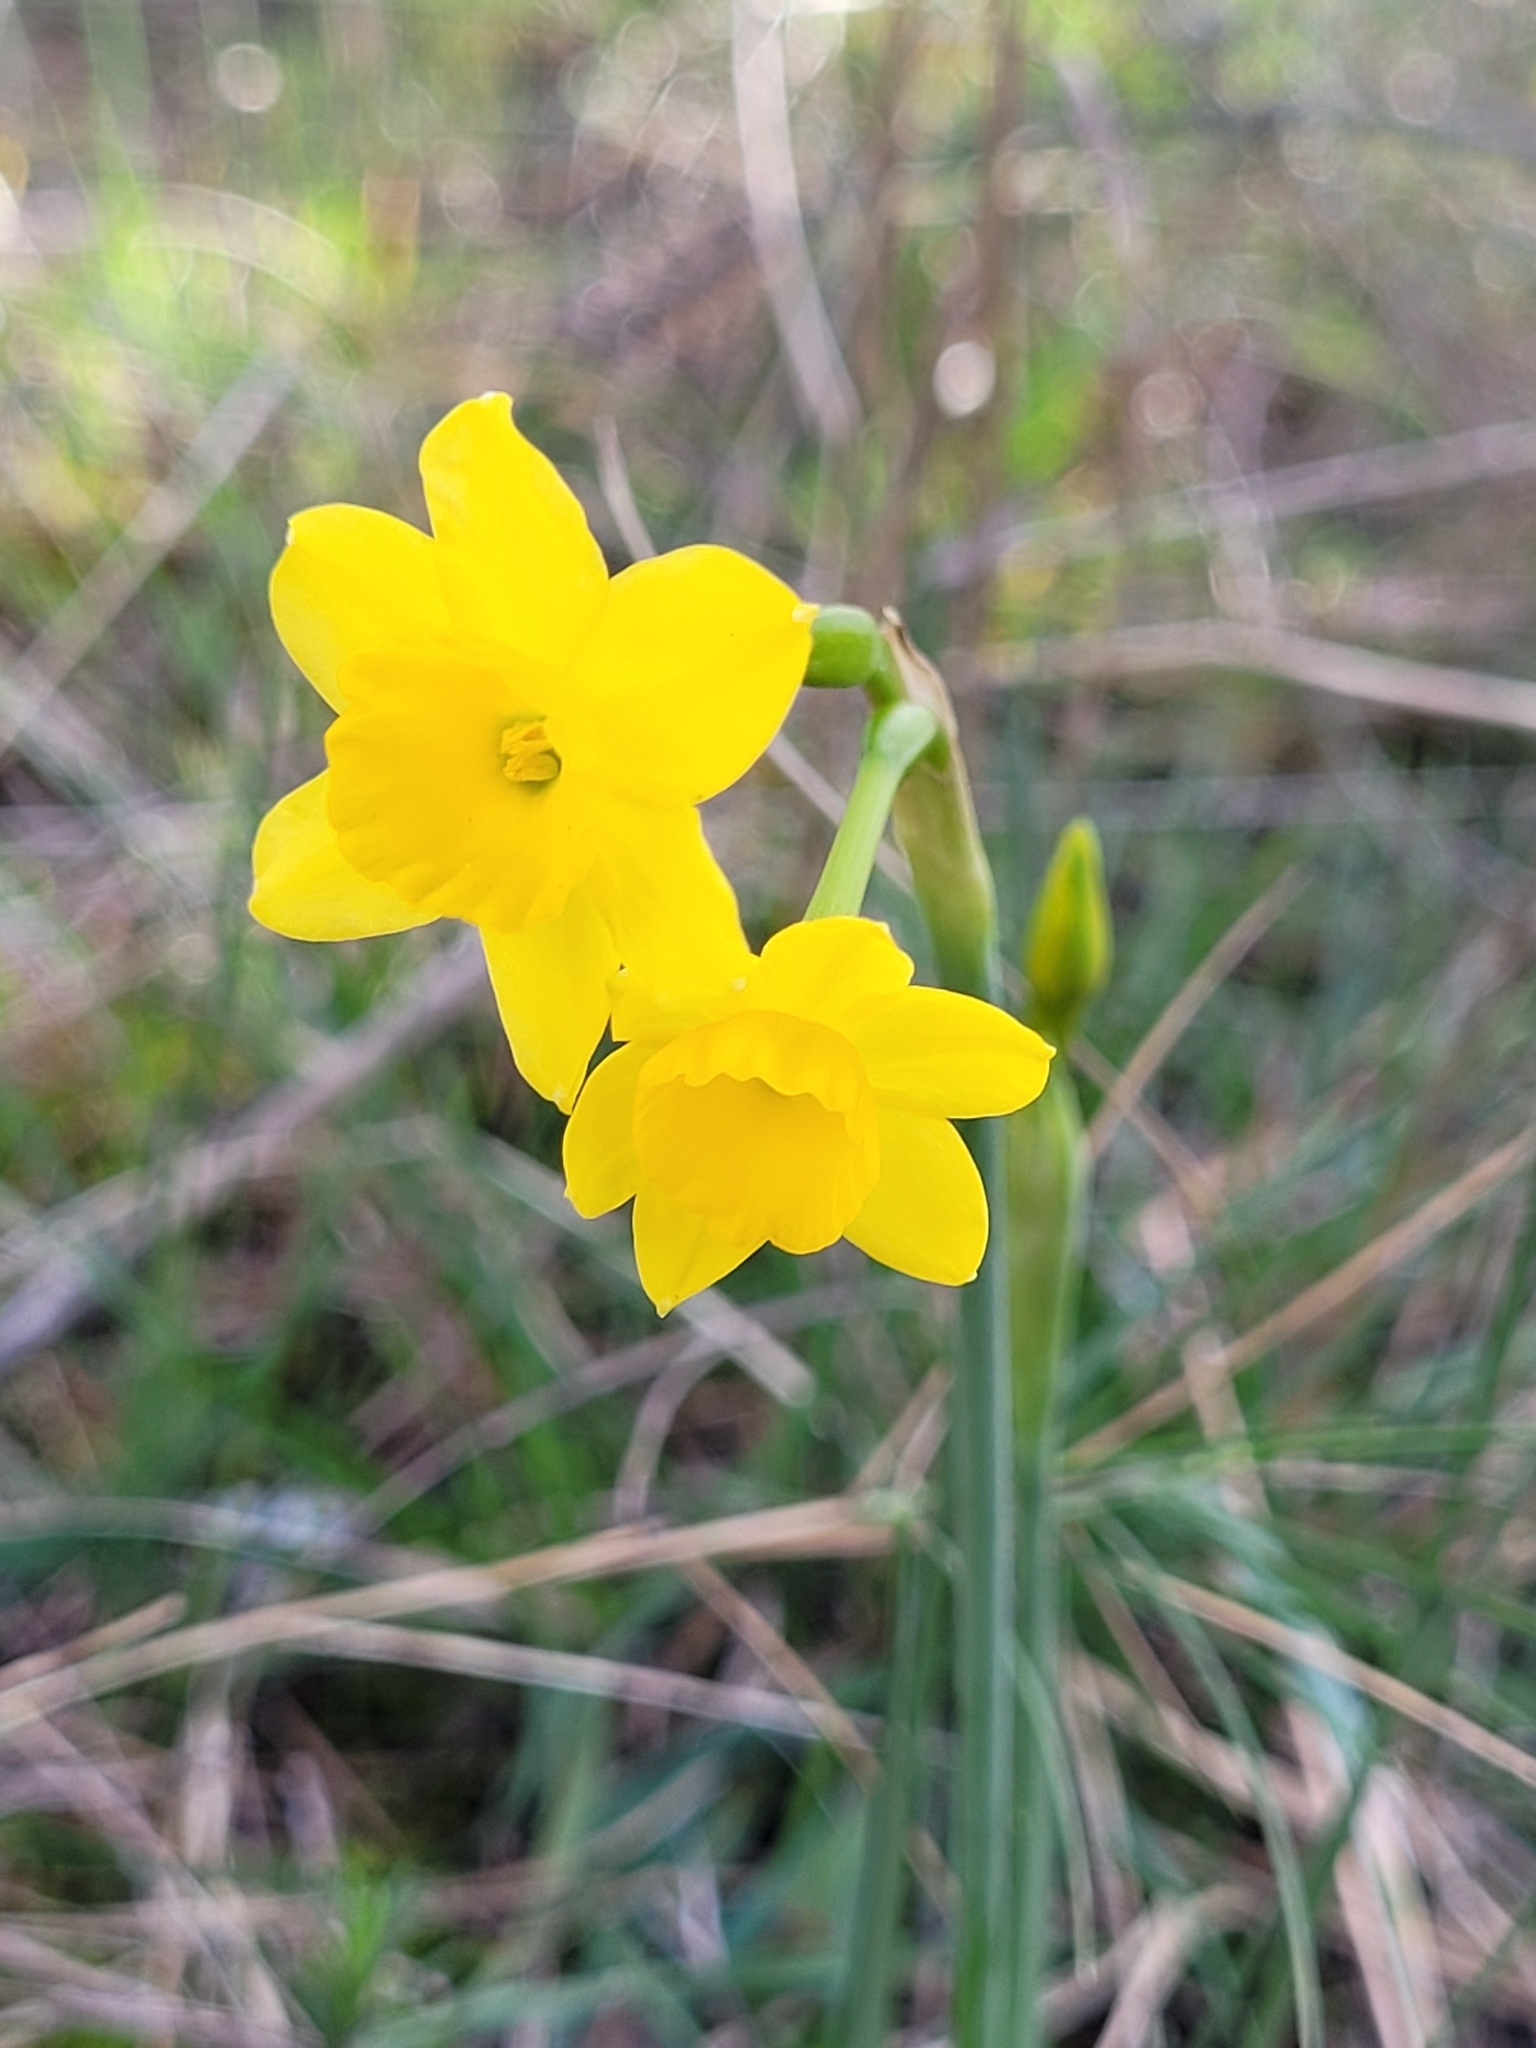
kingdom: Plantae
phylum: Tracheophyta
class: Liliopsida
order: Asparagales
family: Amaryllidaceae
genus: Narcissus
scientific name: Narcissus assoanus
